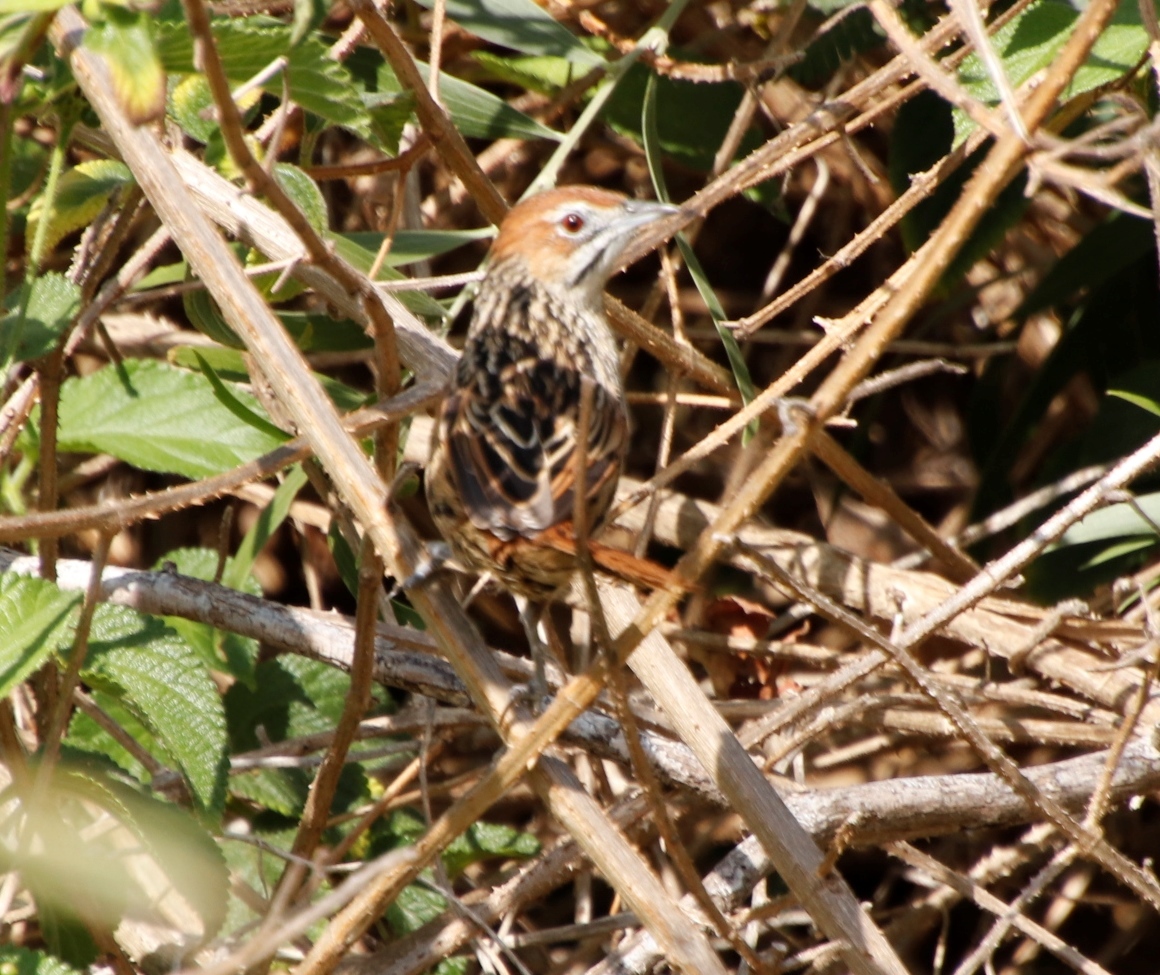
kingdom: Animalia
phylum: Chordata
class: Aves
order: Passeriformes
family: Macrosphenidae
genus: Sphenoeacus
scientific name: Sphenoeacus afer
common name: Cape grassbird
